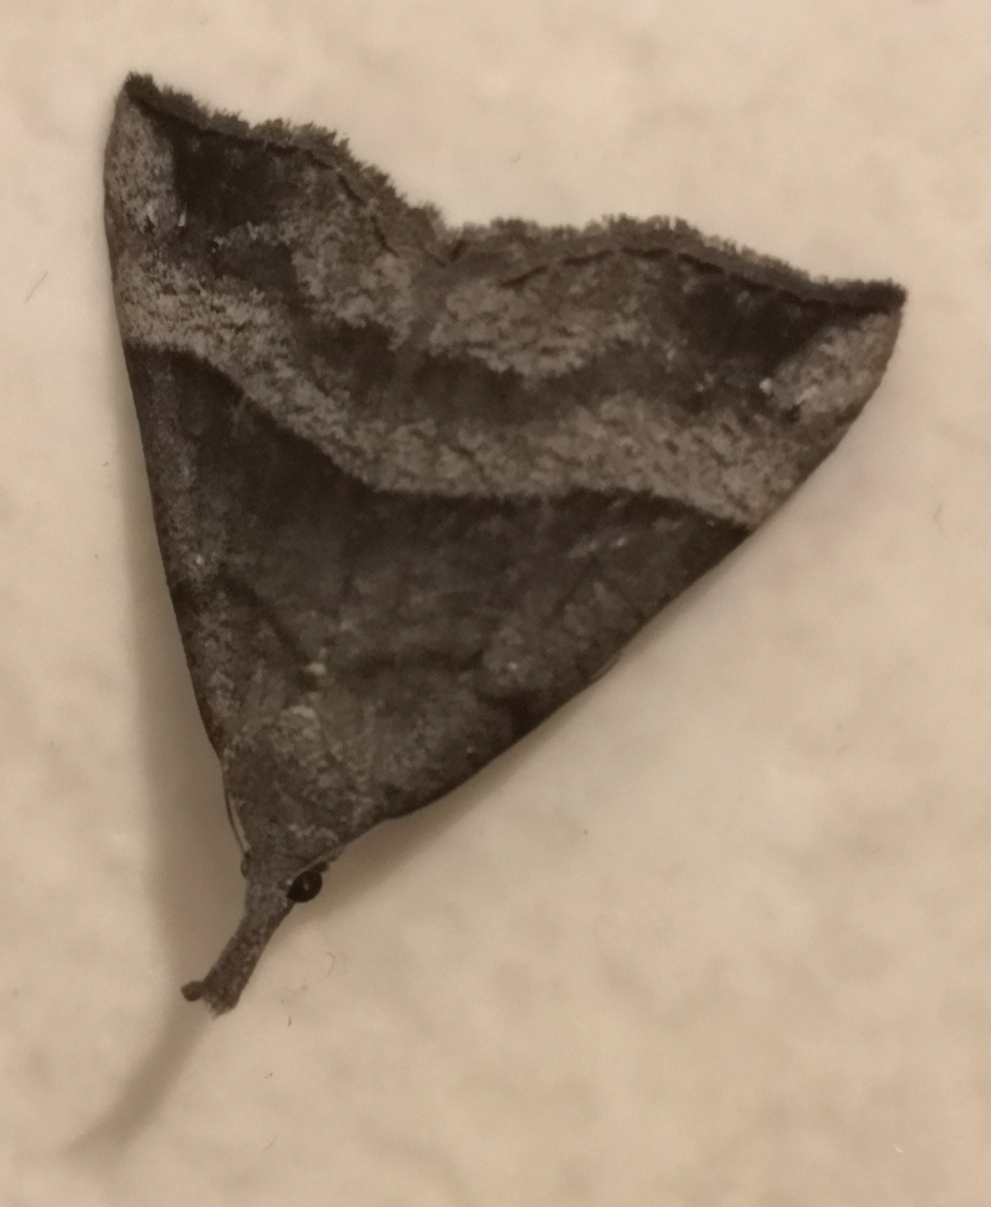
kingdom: Animalia
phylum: Arthropoda
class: Insecta
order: Lepidoptera
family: Erebidae
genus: Hypena
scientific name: Hypena proboscidalis
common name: Snout
